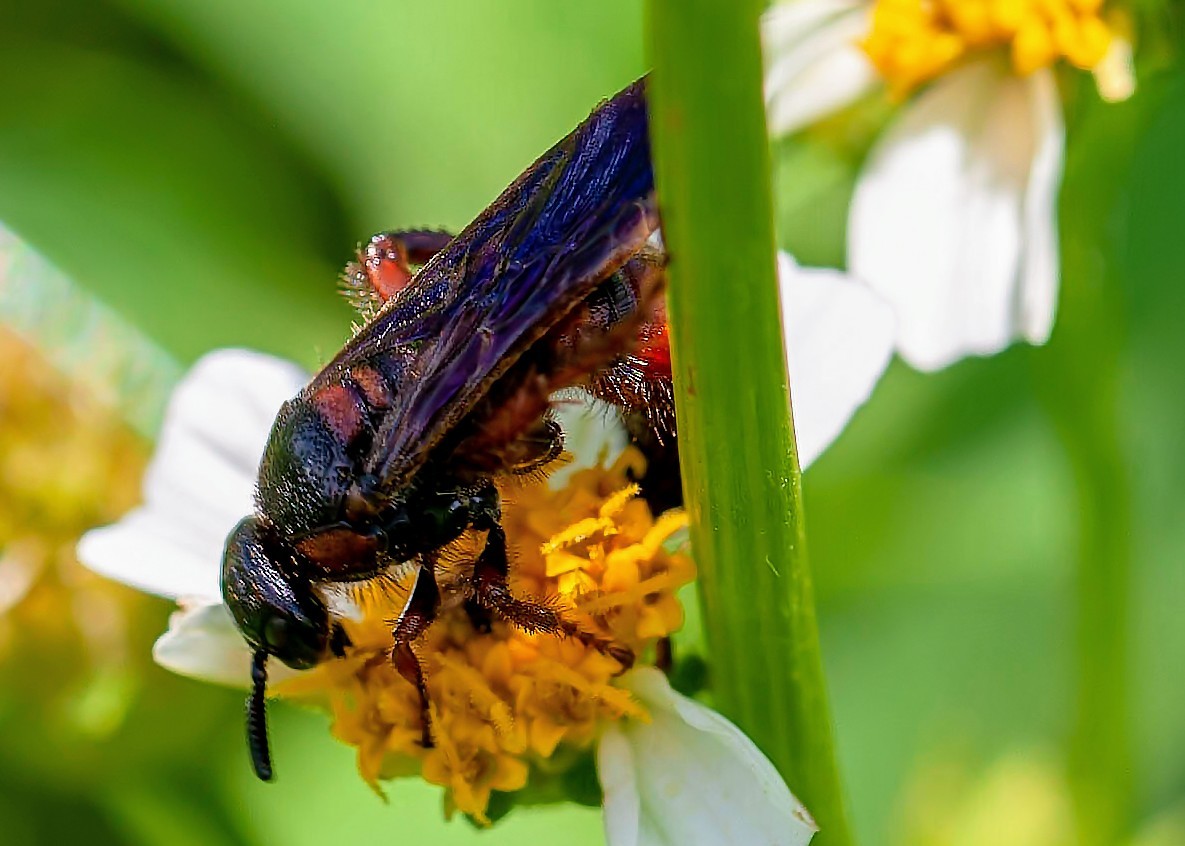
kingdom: Animalia
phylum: Arthropoda
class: Insecta
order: Hymenoptera
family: Scoliidae
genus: Scolia
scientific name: Scolia nobilitata
